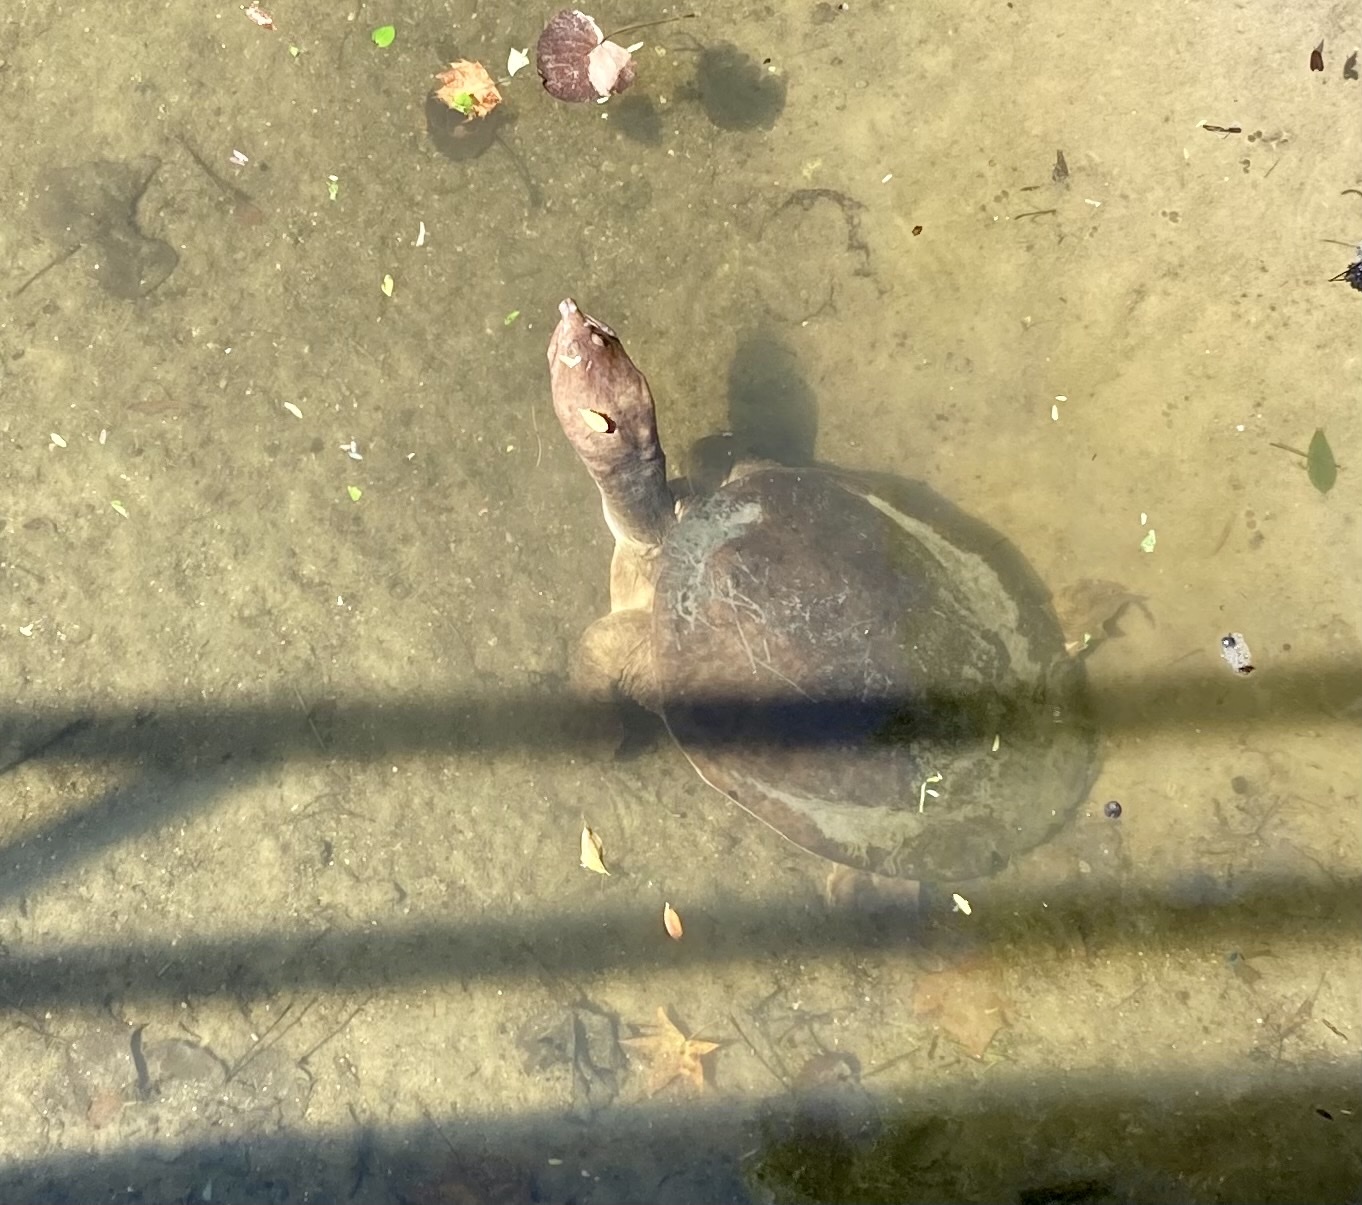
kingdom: Animalia
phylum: Chordata
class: Testudines
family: Trionychidae
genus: Apalone
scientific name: Apalone ferox
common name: Florida softshell turtle
